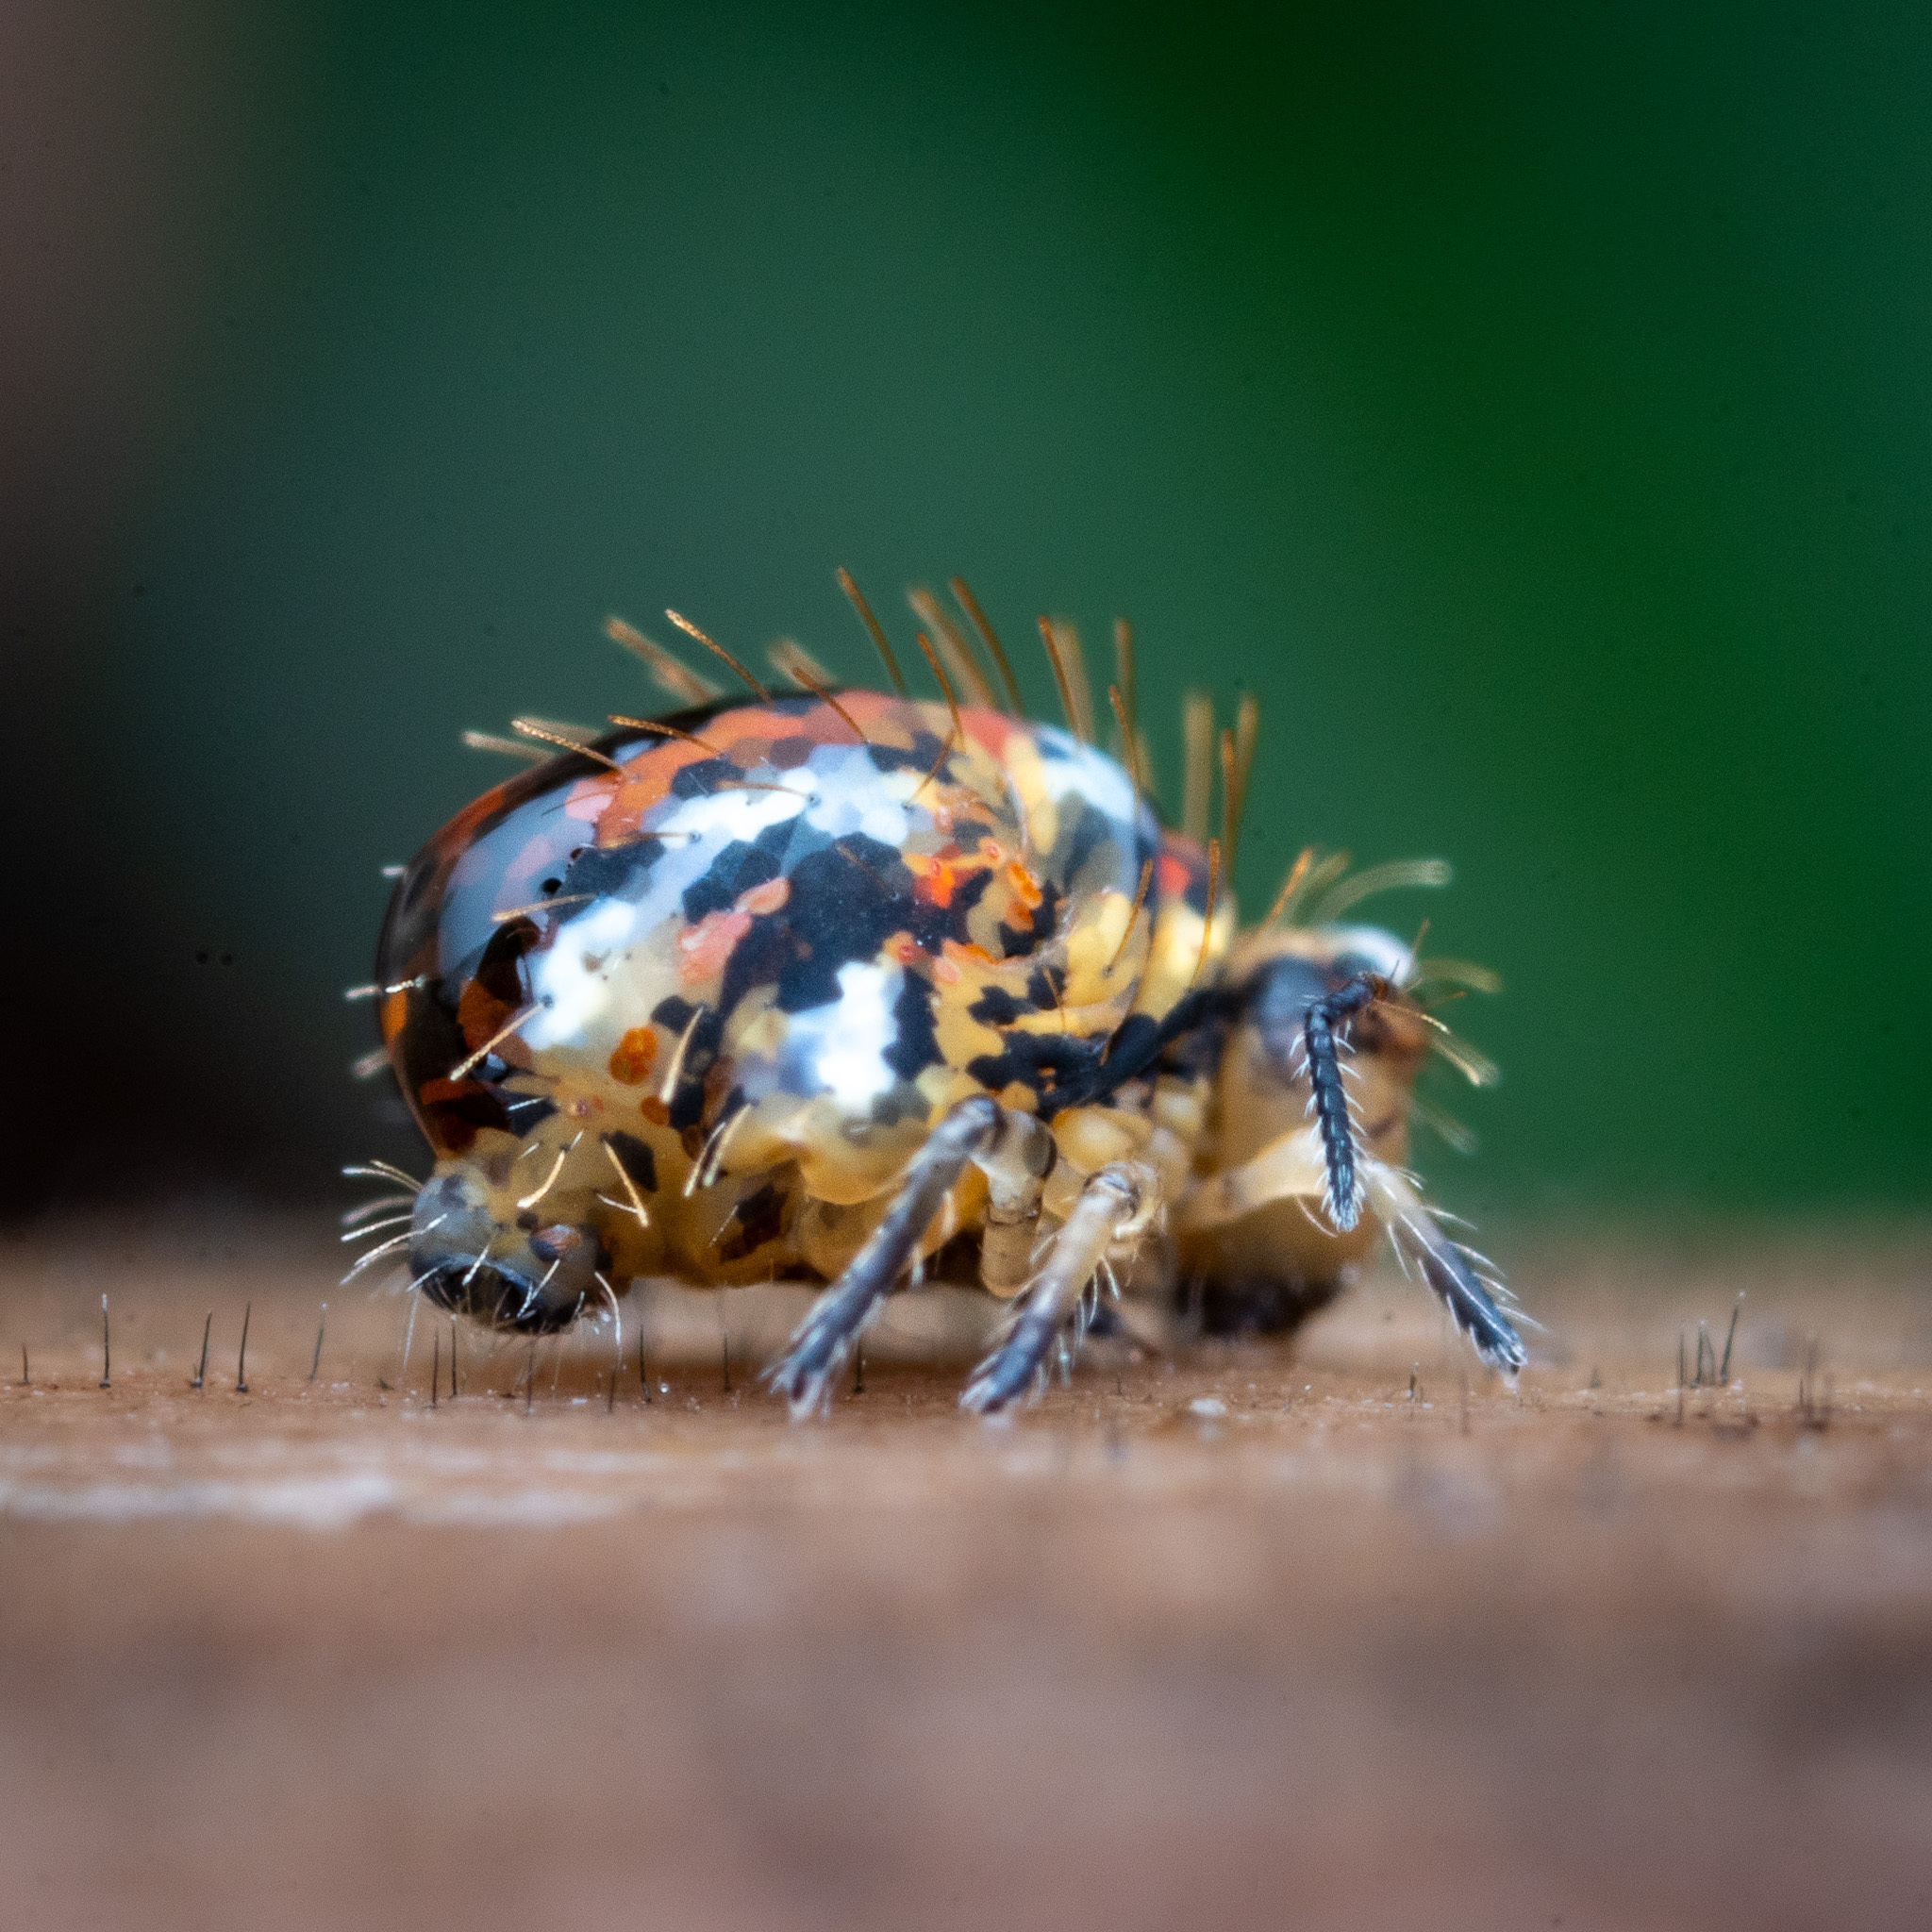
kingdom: Animalia
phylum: Arthropoda
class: Collembola
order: Symphypleona
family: Katiannidae
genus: Vesicephalus
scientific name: Vesicephalus occidentalis
